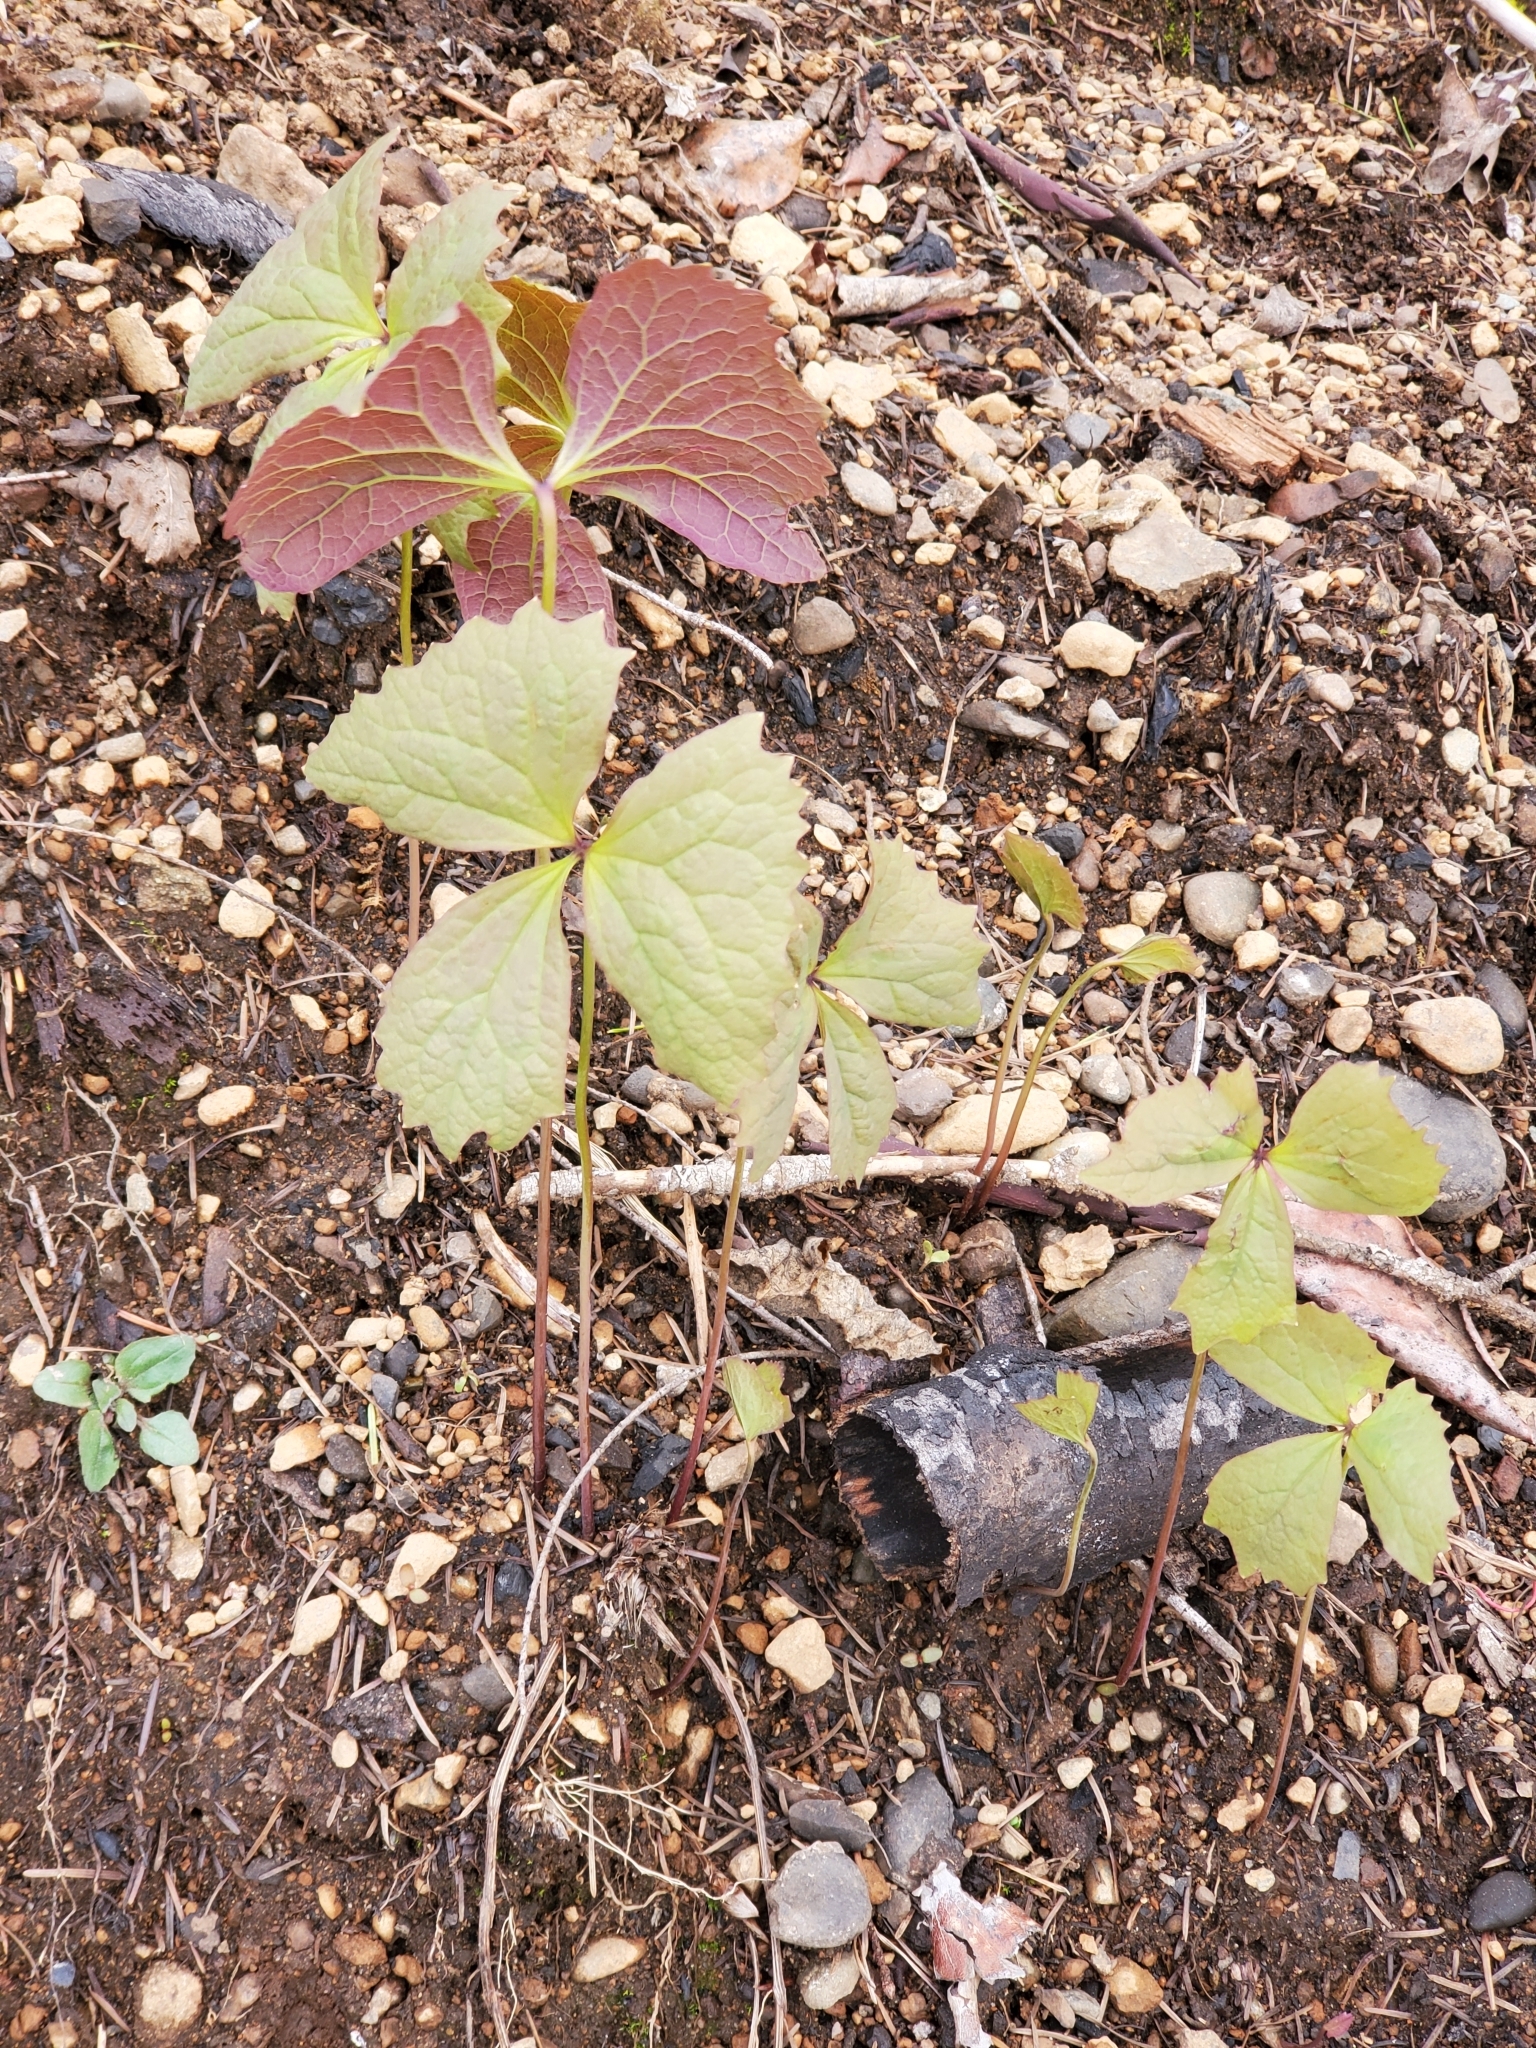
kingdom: Plantae
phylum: Tracheophyta
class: Magnoliopsida
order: Ranunculales
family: Berberidaceae
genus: Achlys
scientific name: Achlys triphylla
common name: Vanilla-leaf
